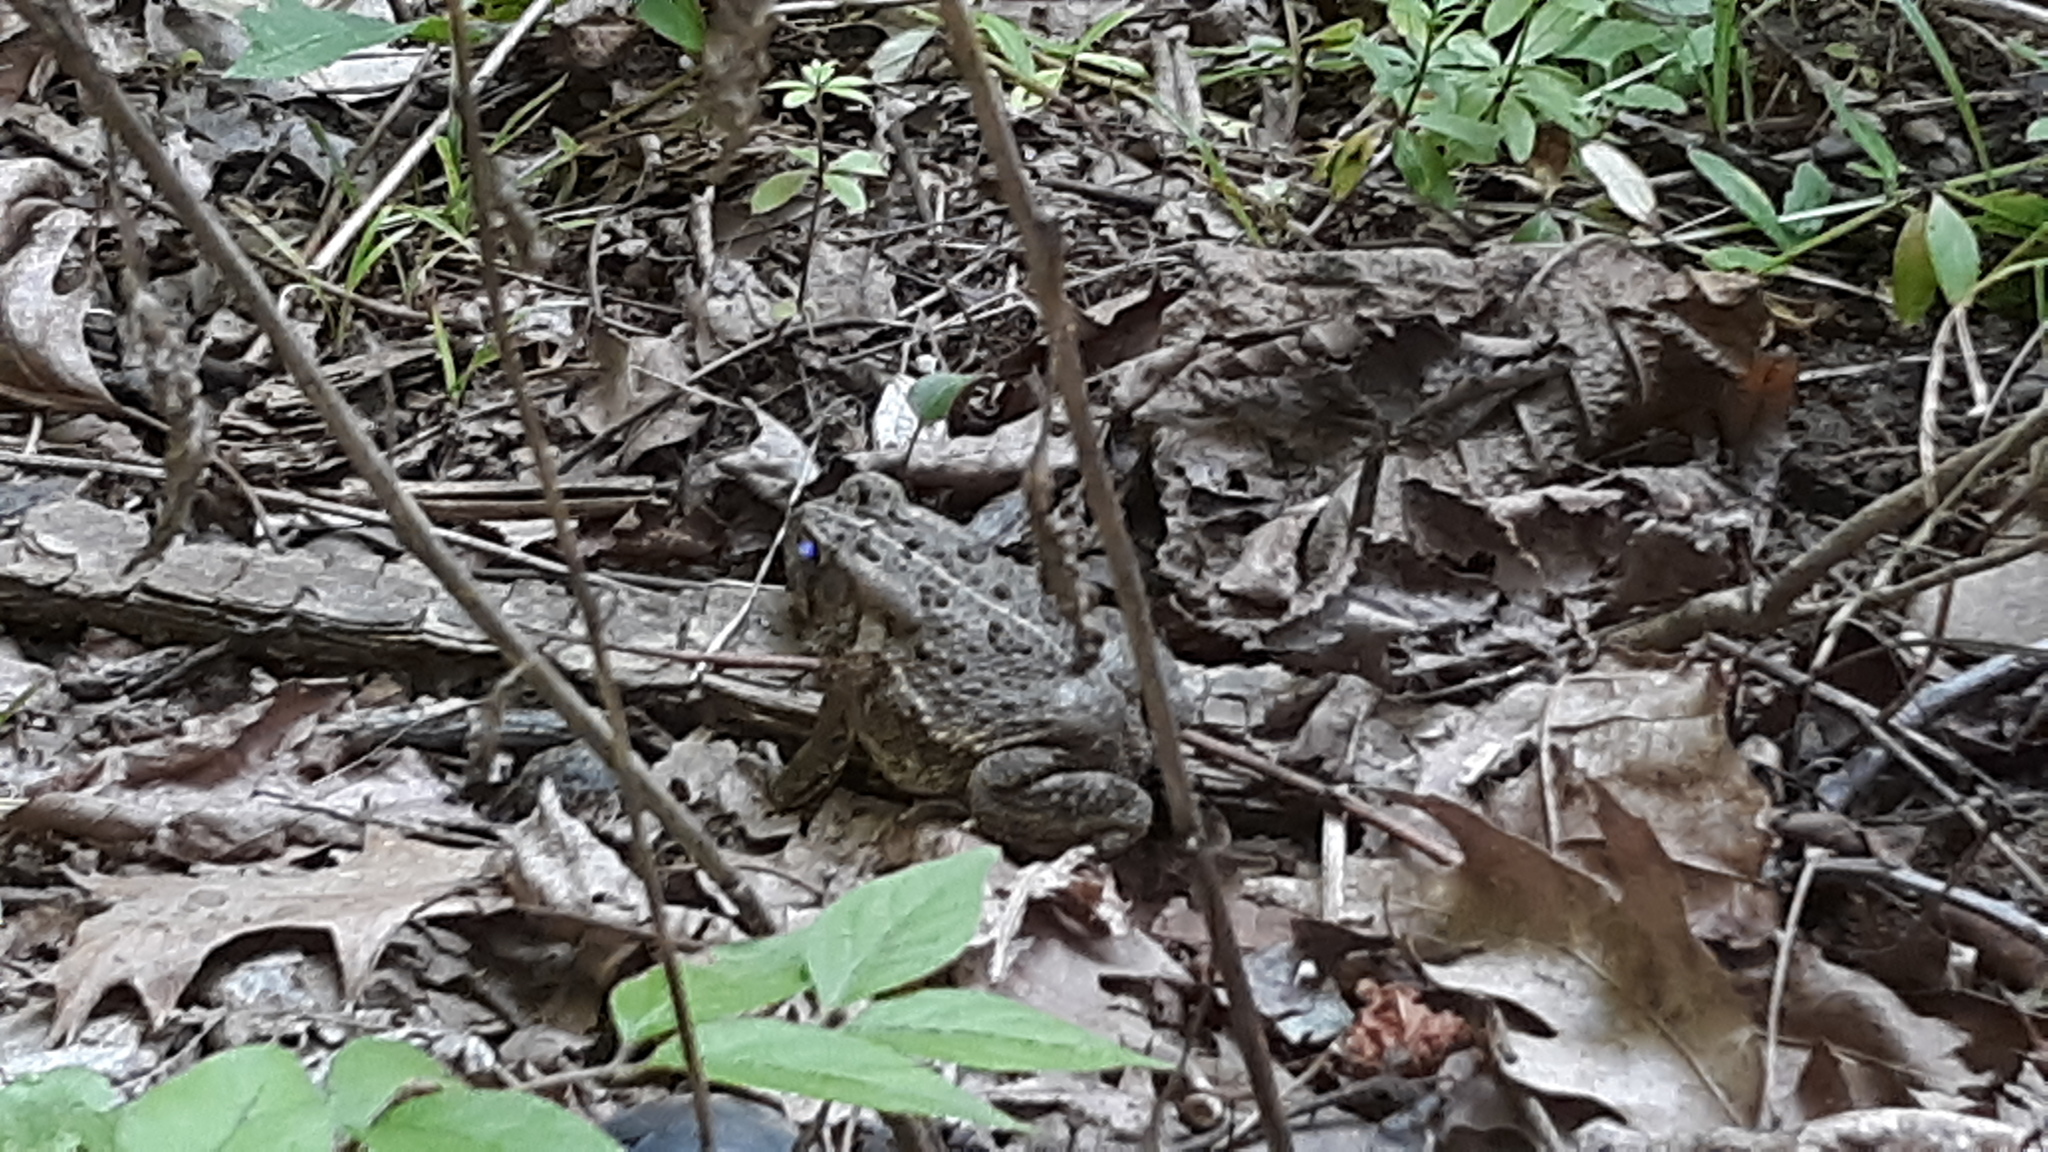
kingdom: Animalia
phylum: Chordata
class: Amphibia
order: Anura
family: Bufonidae
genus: Anaxyrus
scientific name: Anaxyrus fowleri
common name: Fowler's toad
